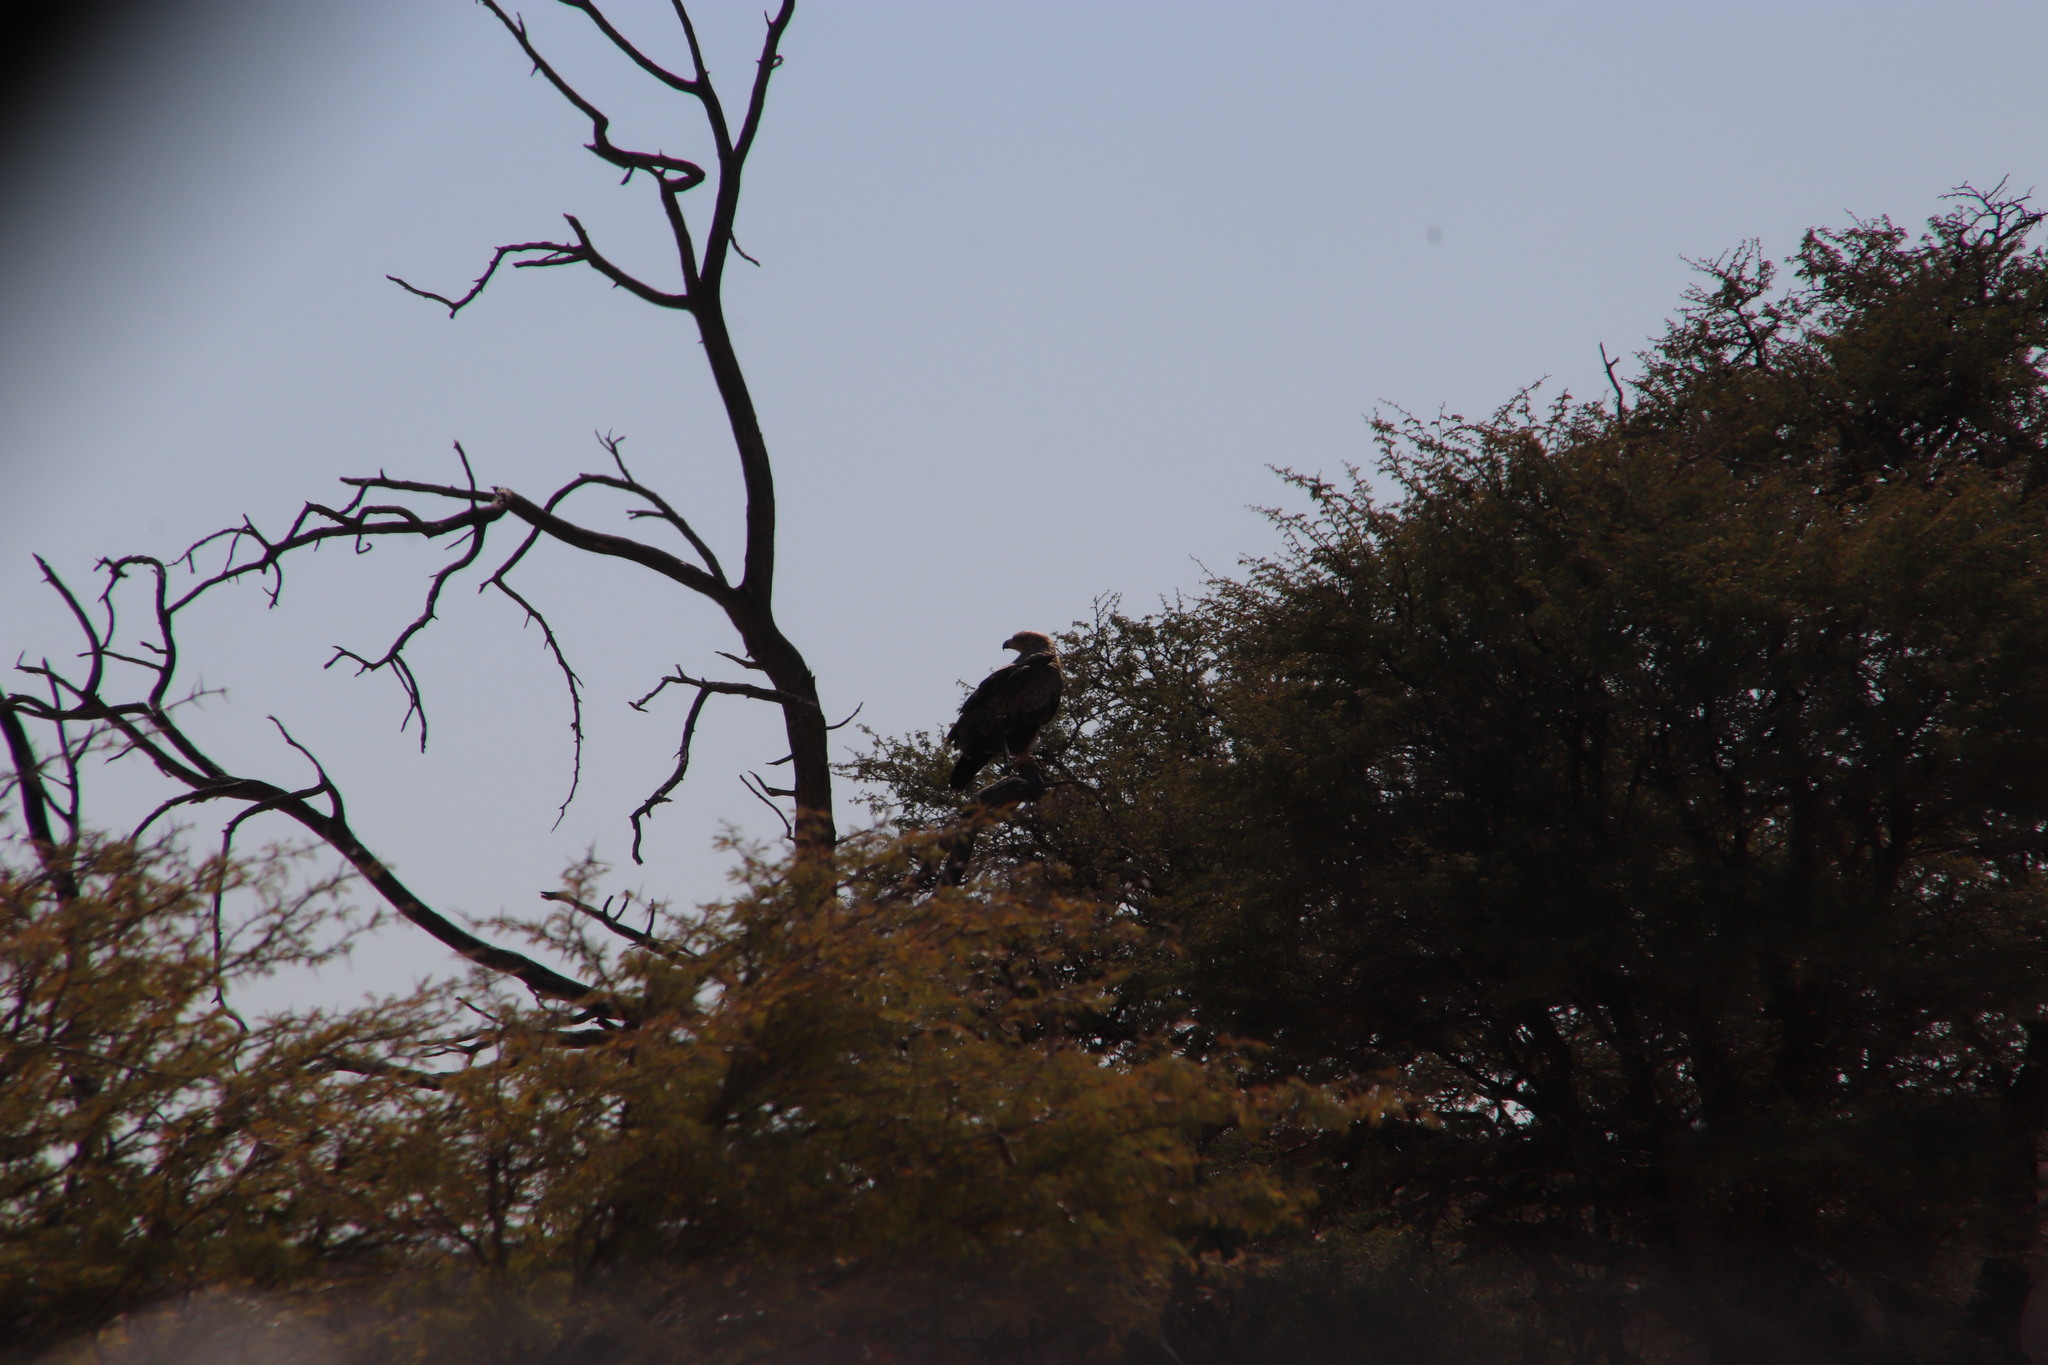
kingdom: Animalia
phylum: Chordata
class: Aves
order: Accipitriformes
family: Accipitridae
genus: Aquila
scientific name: Aquila rapax
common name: Tawny eagle
